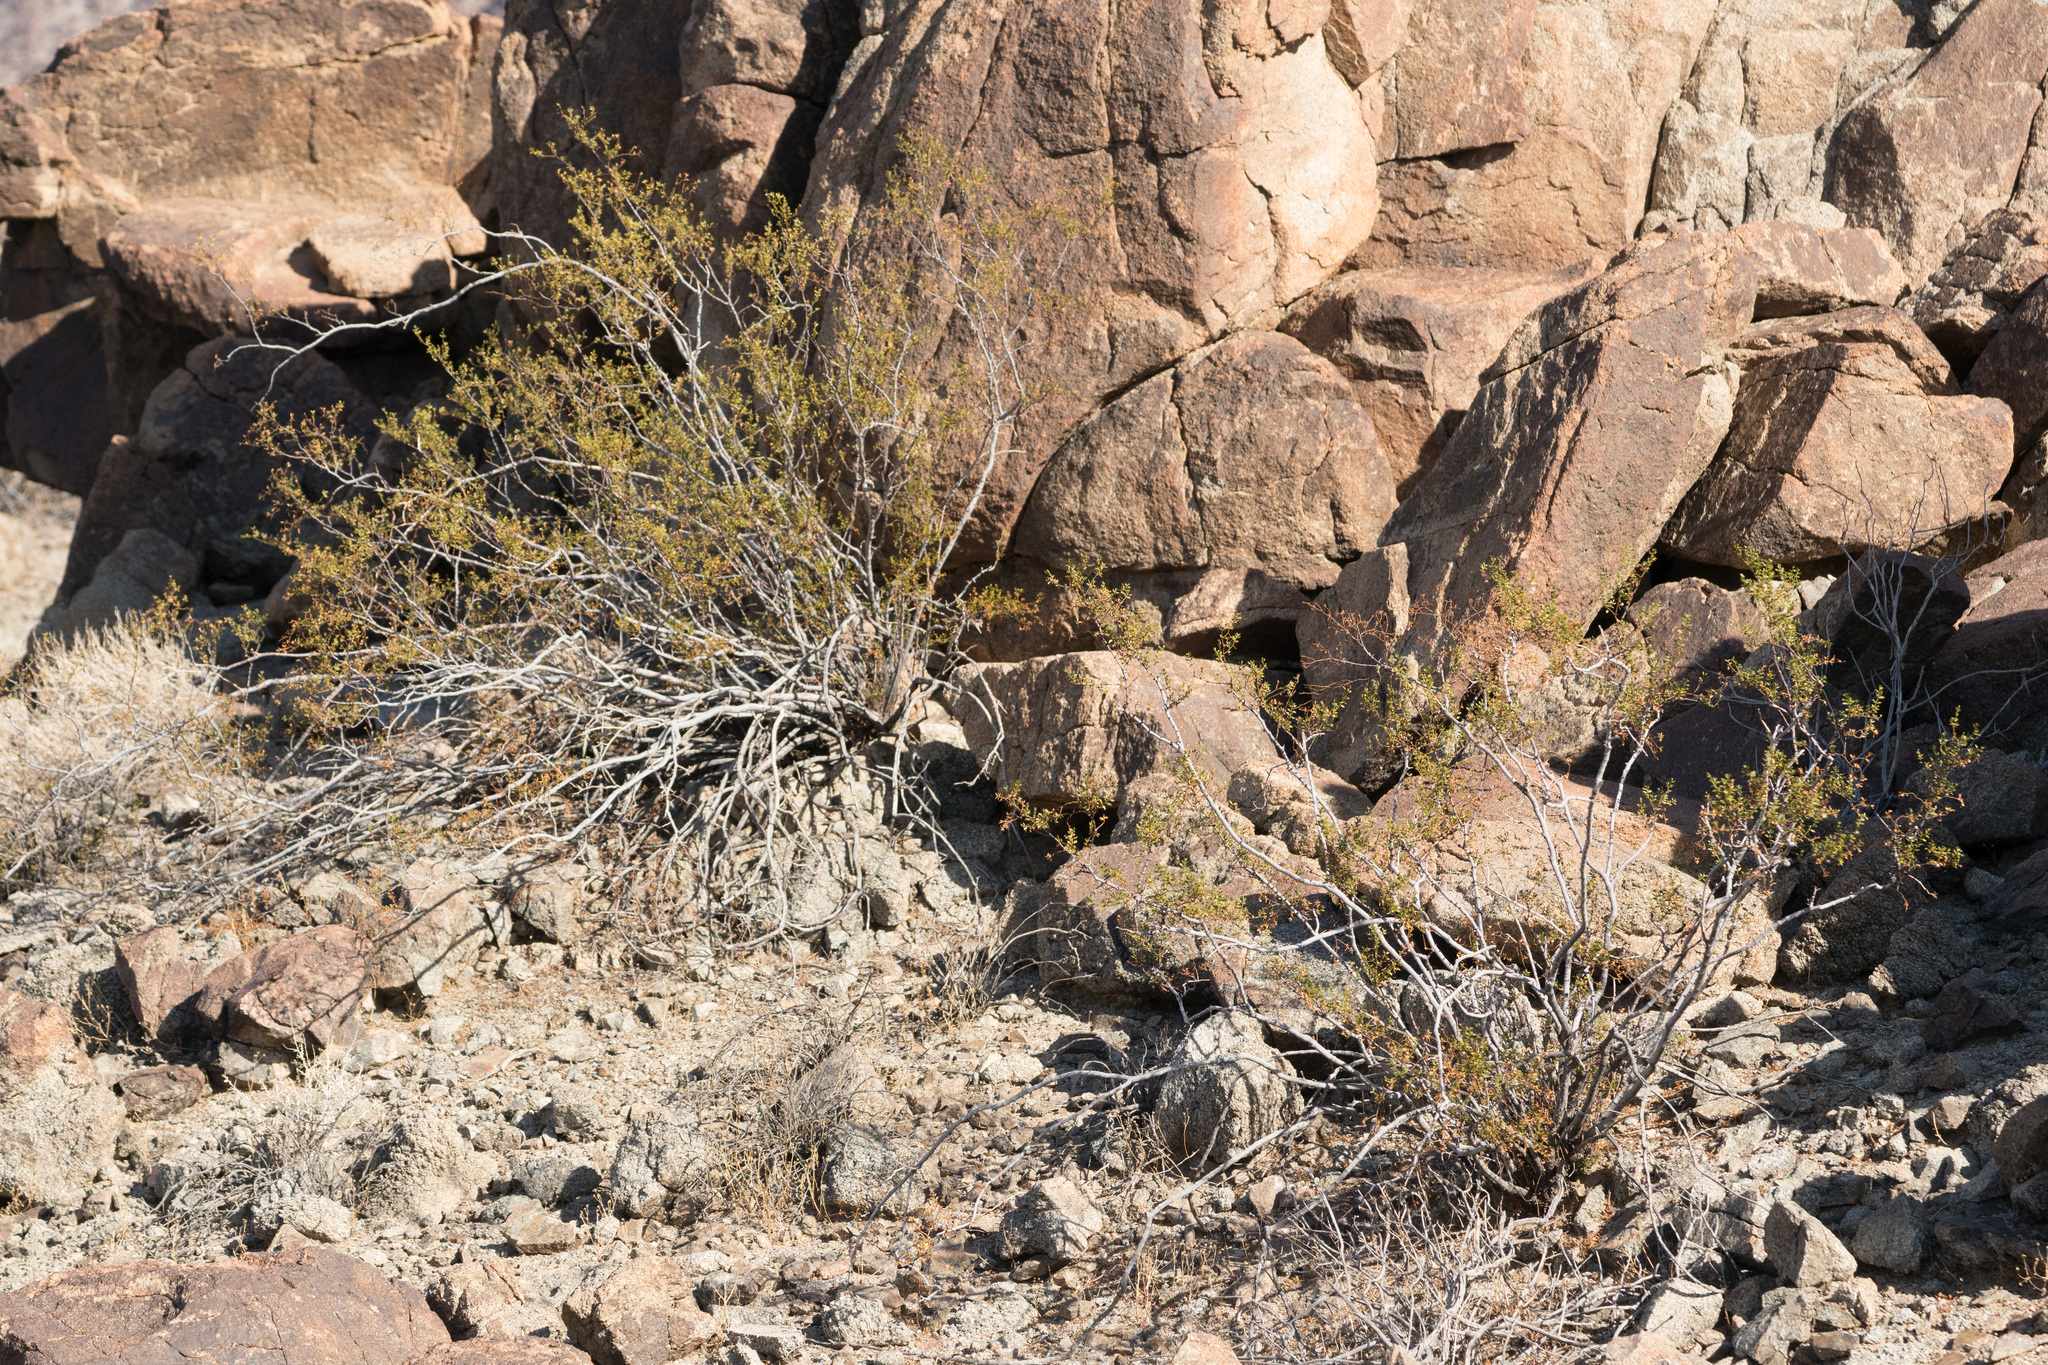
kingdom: Plantae
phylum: Tracheophyta
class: Magnoliopsida
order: Zygophyllales
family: Zygophyllaceae
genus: Larrea
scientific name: Larrea tridentata
